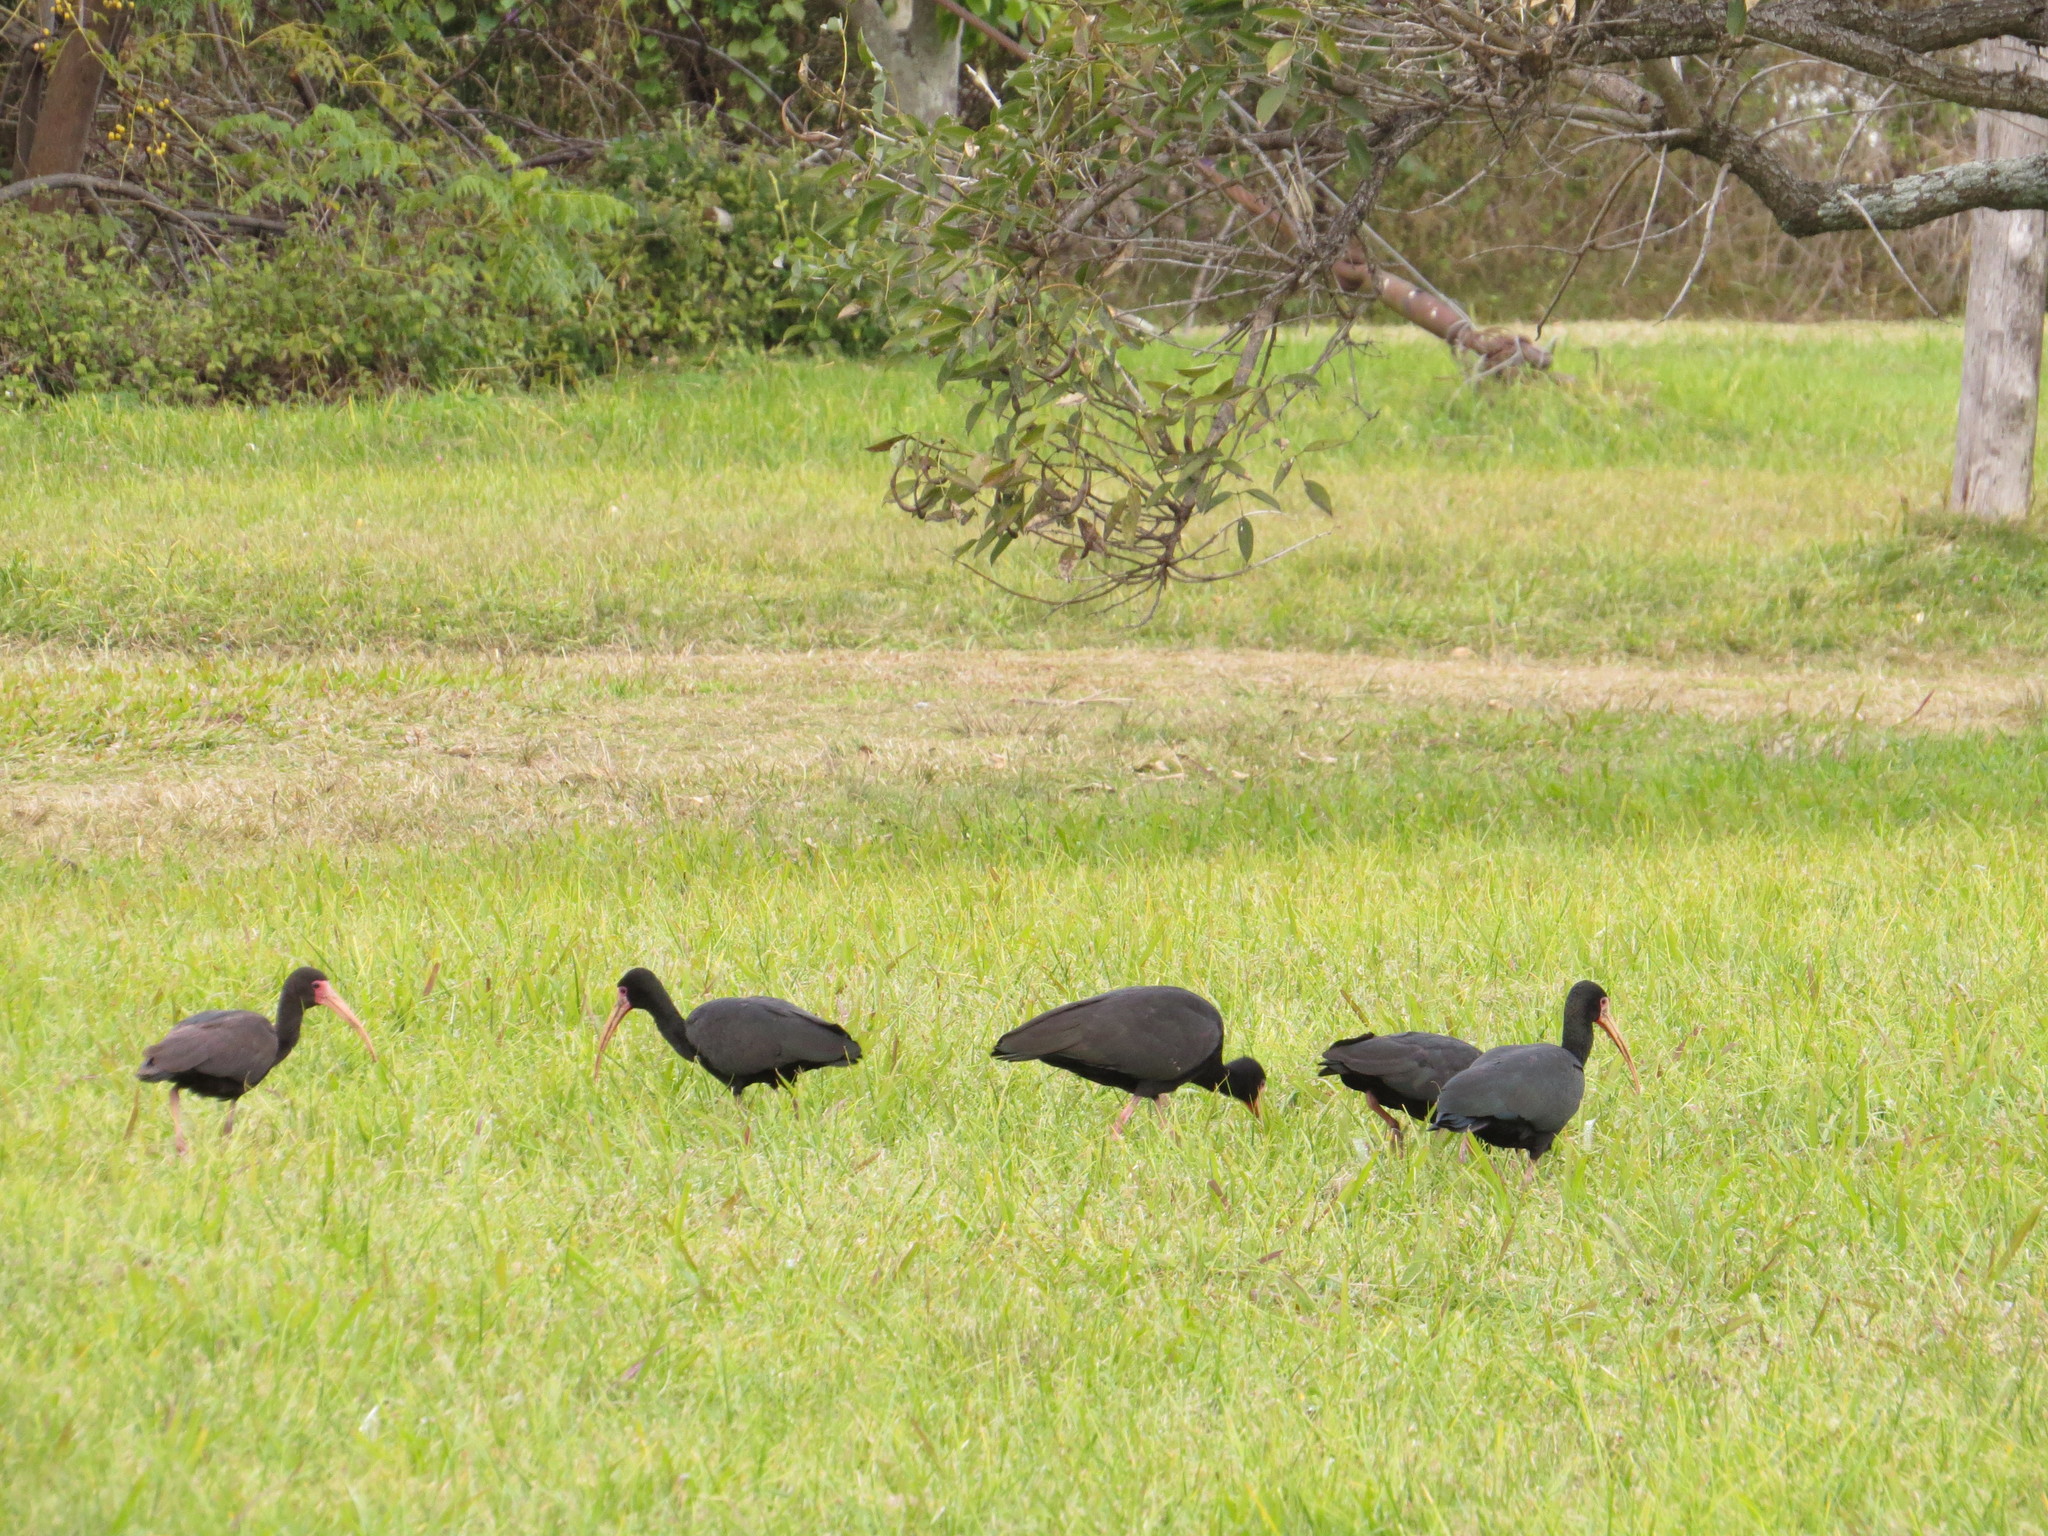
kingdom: Animalia
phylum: Chordata
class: Aves
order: Pelecaniformes
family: Threskiornithidae
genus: Phimosus
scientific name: Phimosus infuscatus
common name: Bare-faced ibis
